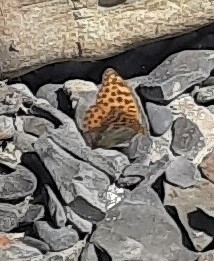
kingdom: Animalia
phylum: Arthropoda
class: Insecta
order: Lepidoptera
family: Nymphalidae
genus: Argynnis
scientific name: Argynnis paphia
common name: Silver-washed fritillary
